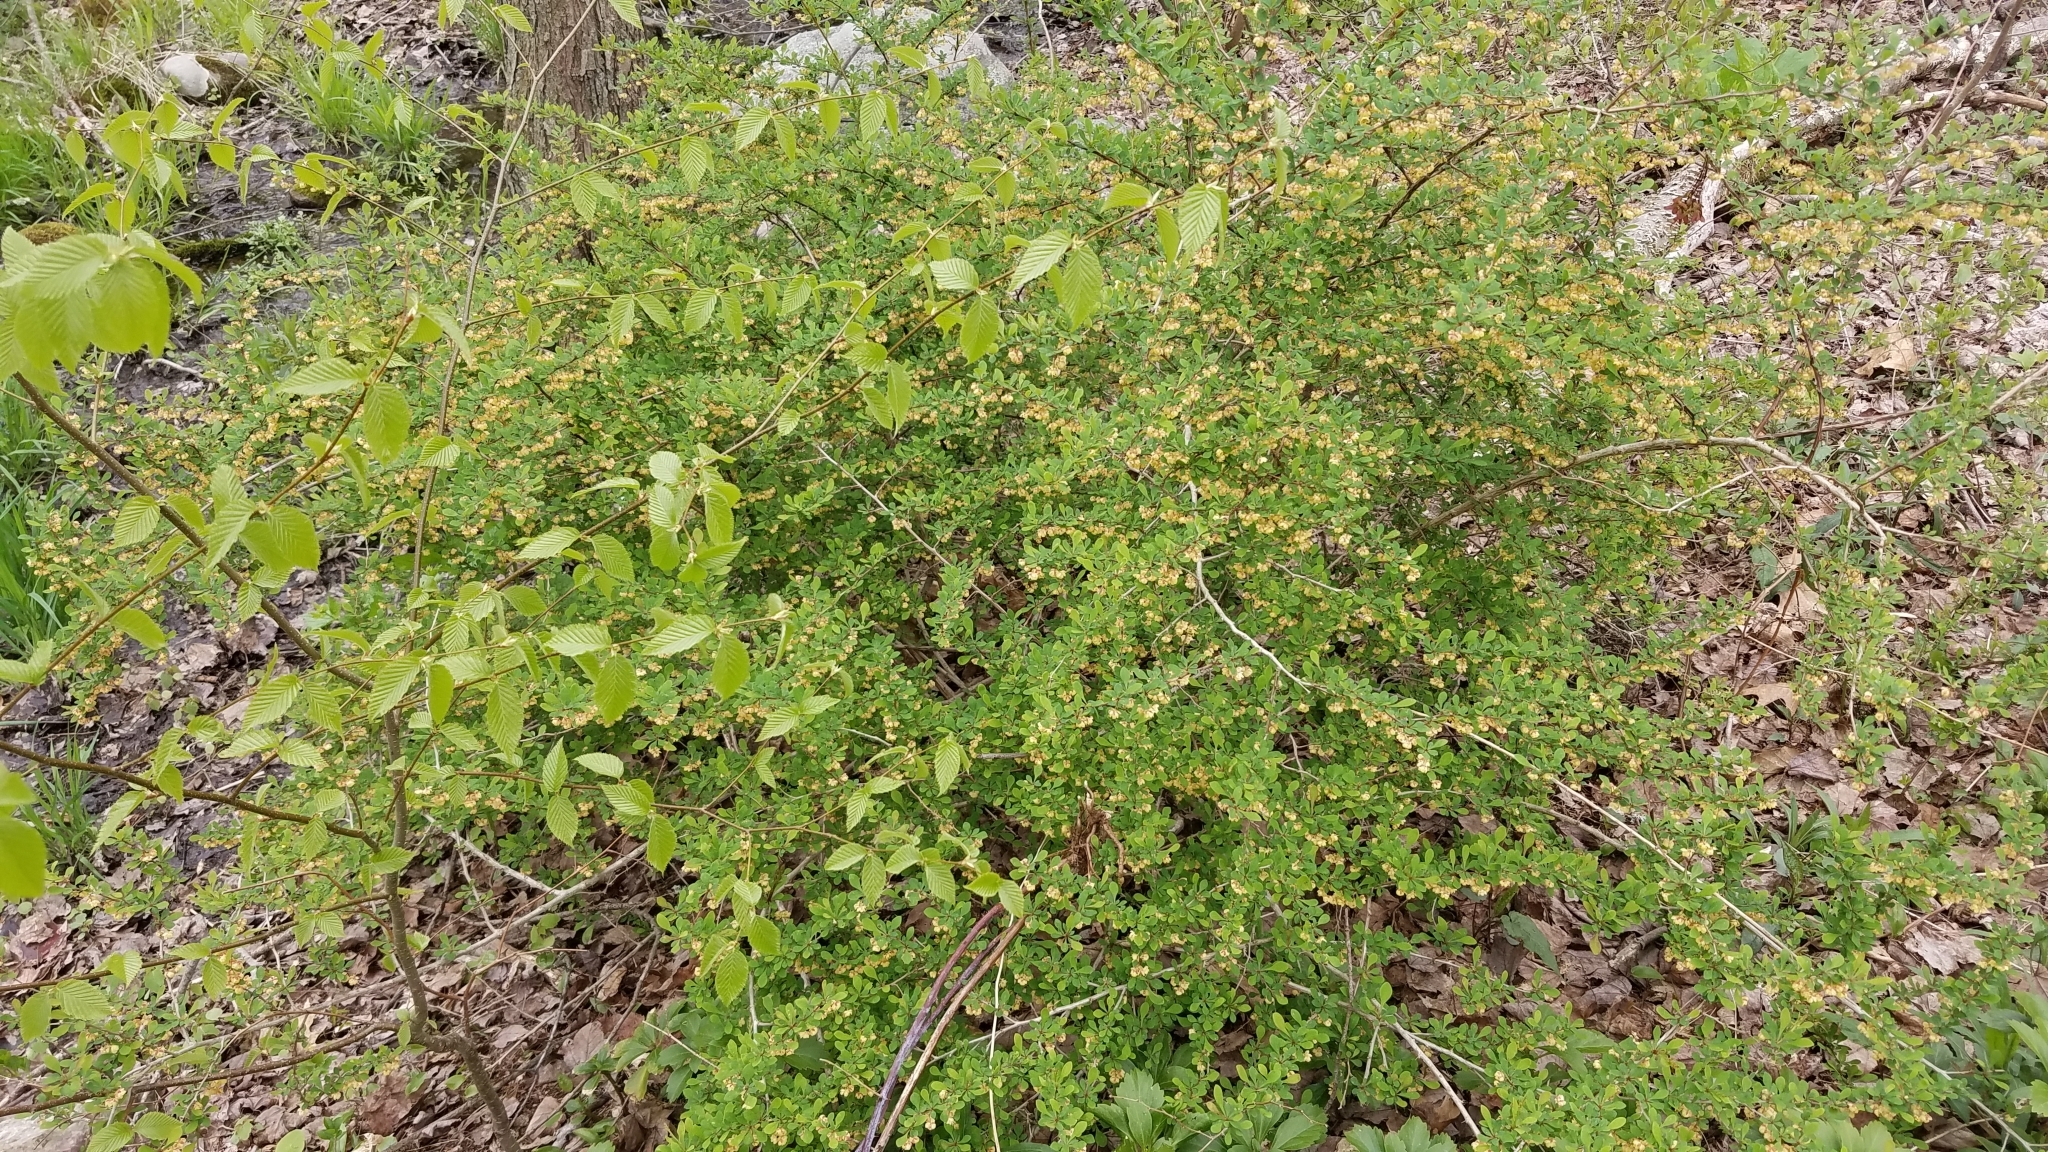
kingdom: Plantae
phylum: Tracheophyta
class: Magnoliopsida
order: Ranunculales
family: Berberidaceae
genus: Berberis
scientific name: Berberis thunbergii
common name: Japanese barberry
